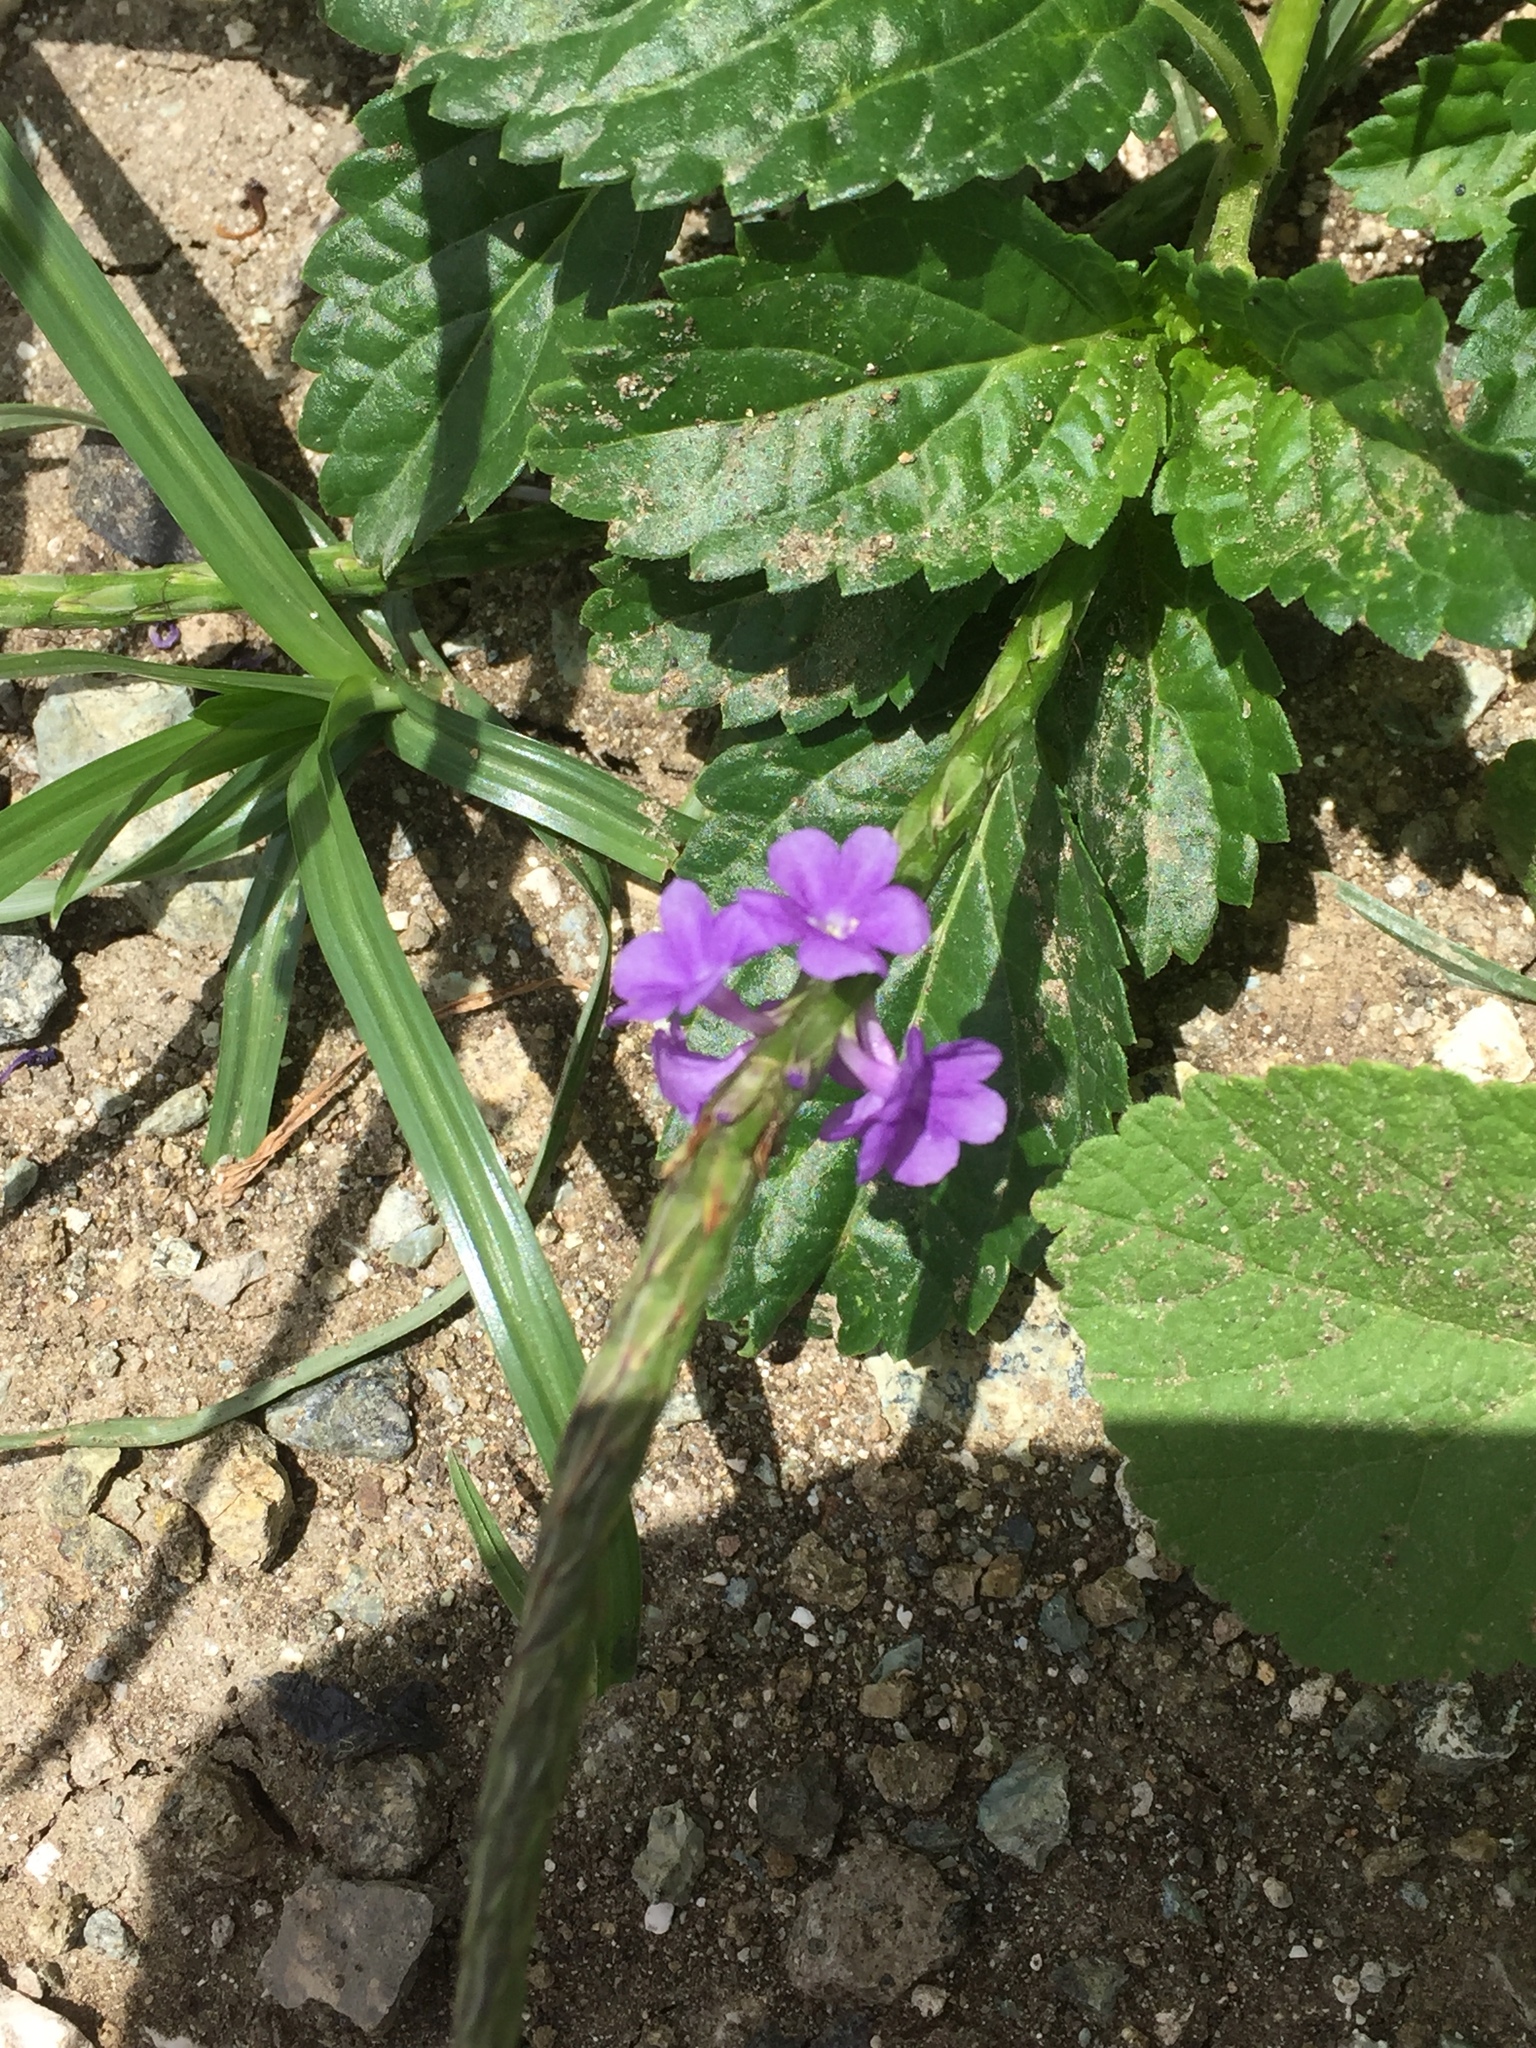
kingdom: Plantae
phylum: Tracheophyta
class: Magnoliopsida
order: Lamiales
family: Verbenaceae
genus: Stachytarpheta
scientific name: Stachytarpheta jamaicensis
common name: Light-blue snakeweed
